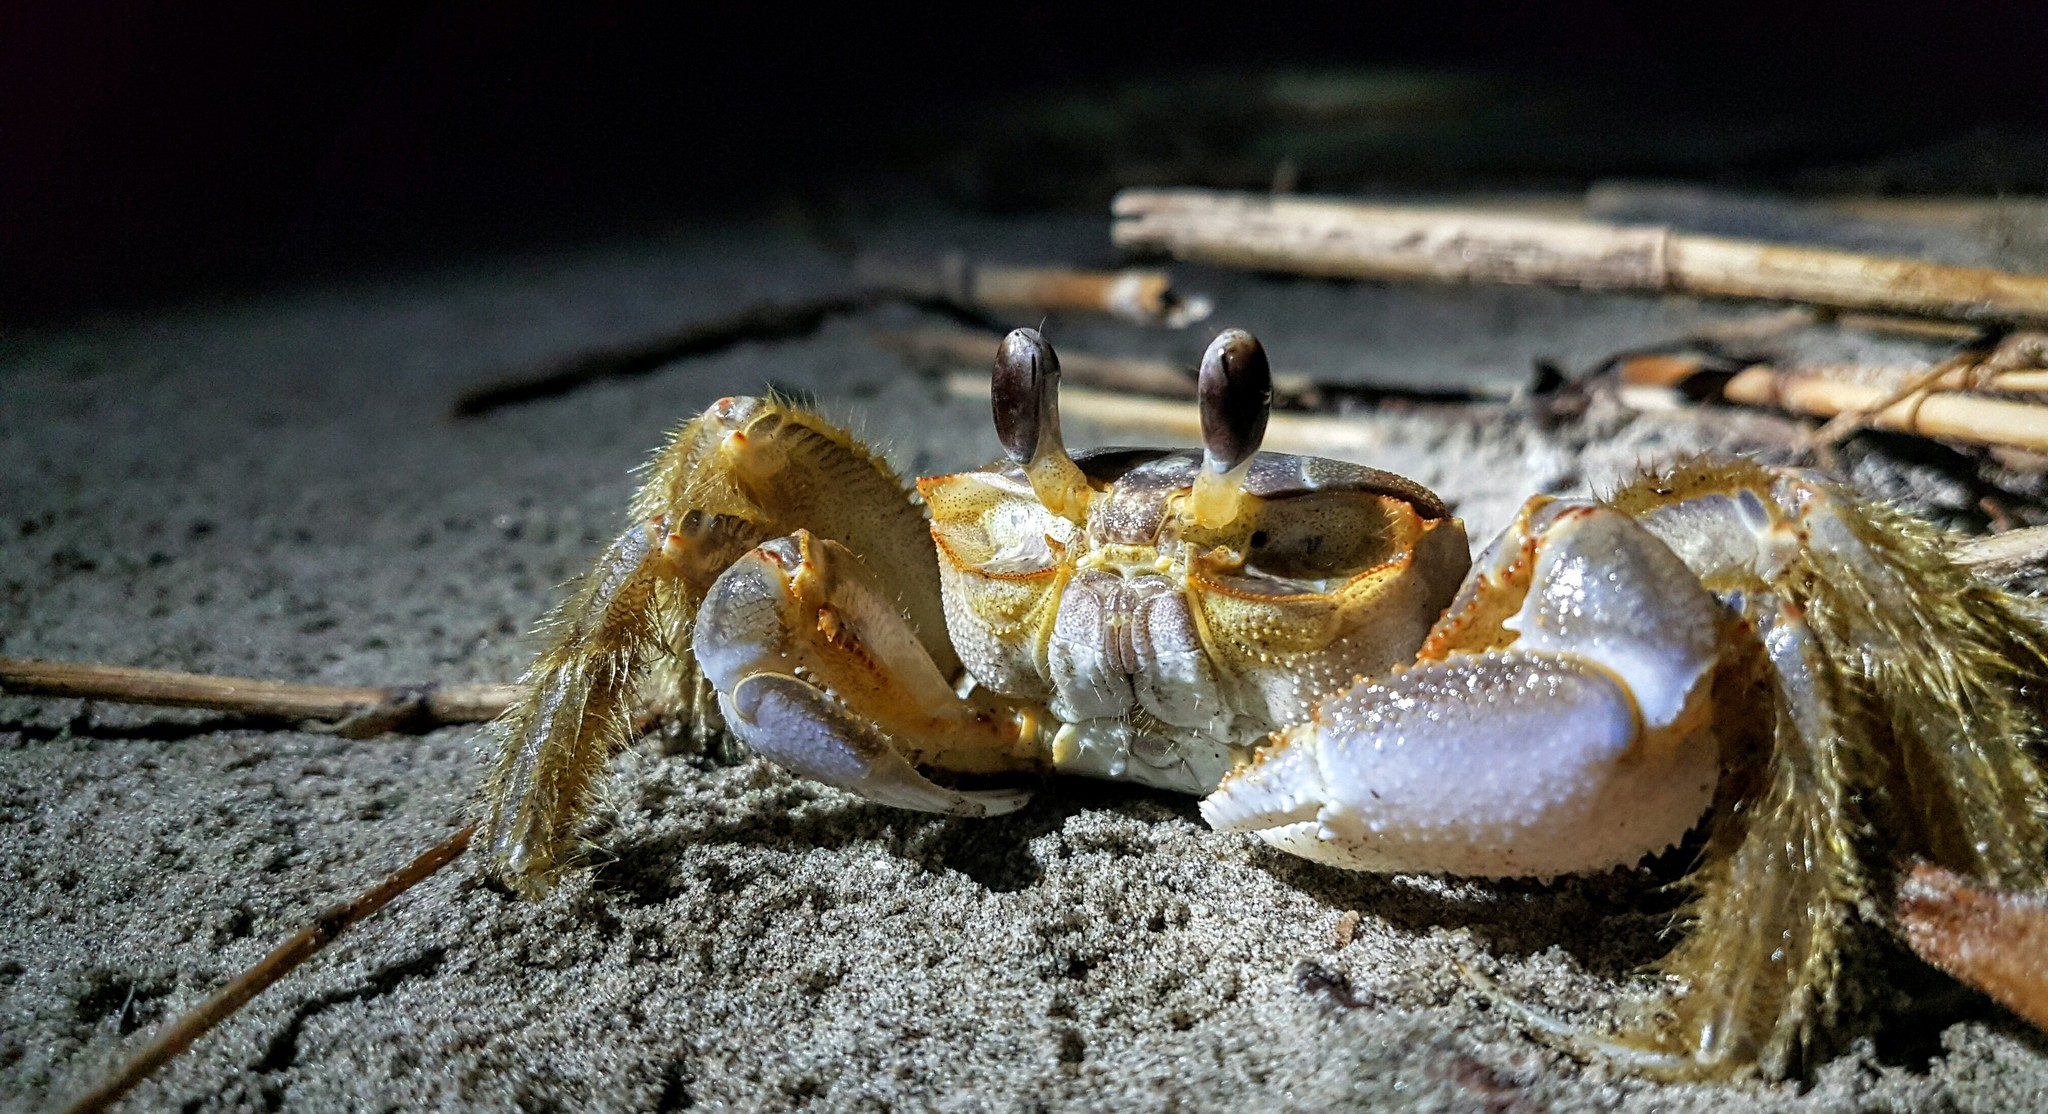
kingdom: Animalia
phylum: Arthropoda
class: Malacostraca
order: Decapoda
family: Ocypodidae
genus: Ocypode
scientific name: Ocypode quadrata
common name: Ghost crab
